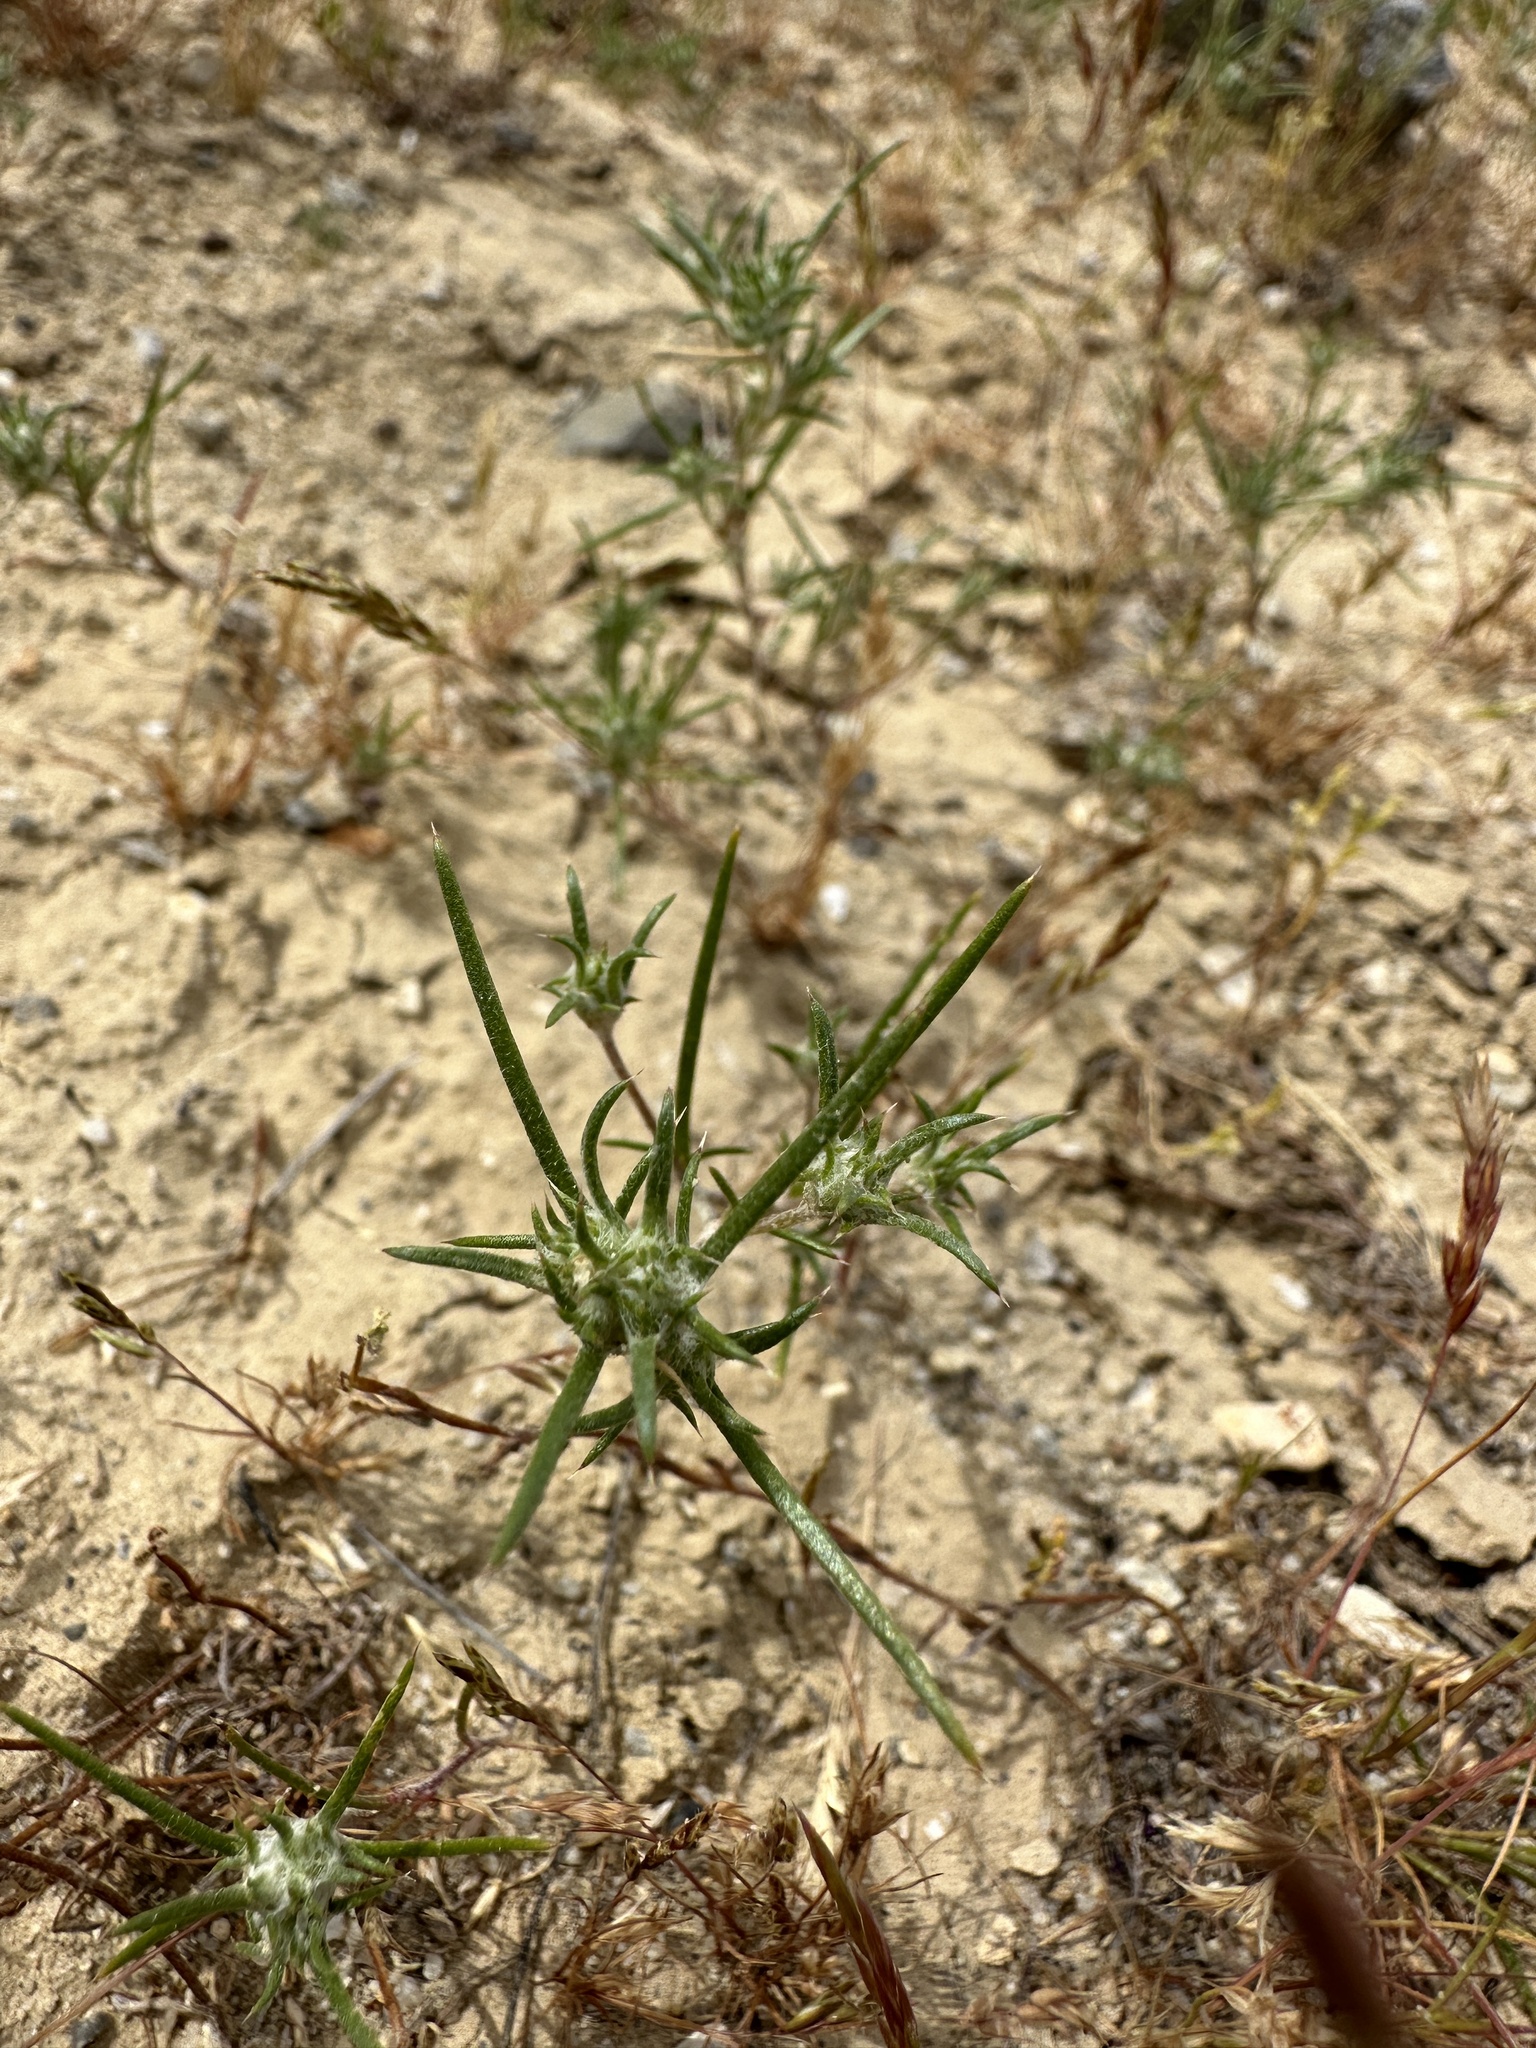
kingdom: Plantae
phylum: Tracheophyta
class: Magnoliopsida
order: Ericales
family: Polemoniaceae
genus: Eriastrum
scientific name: Eriastrum hooveri
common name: Hoover's woolly-star
